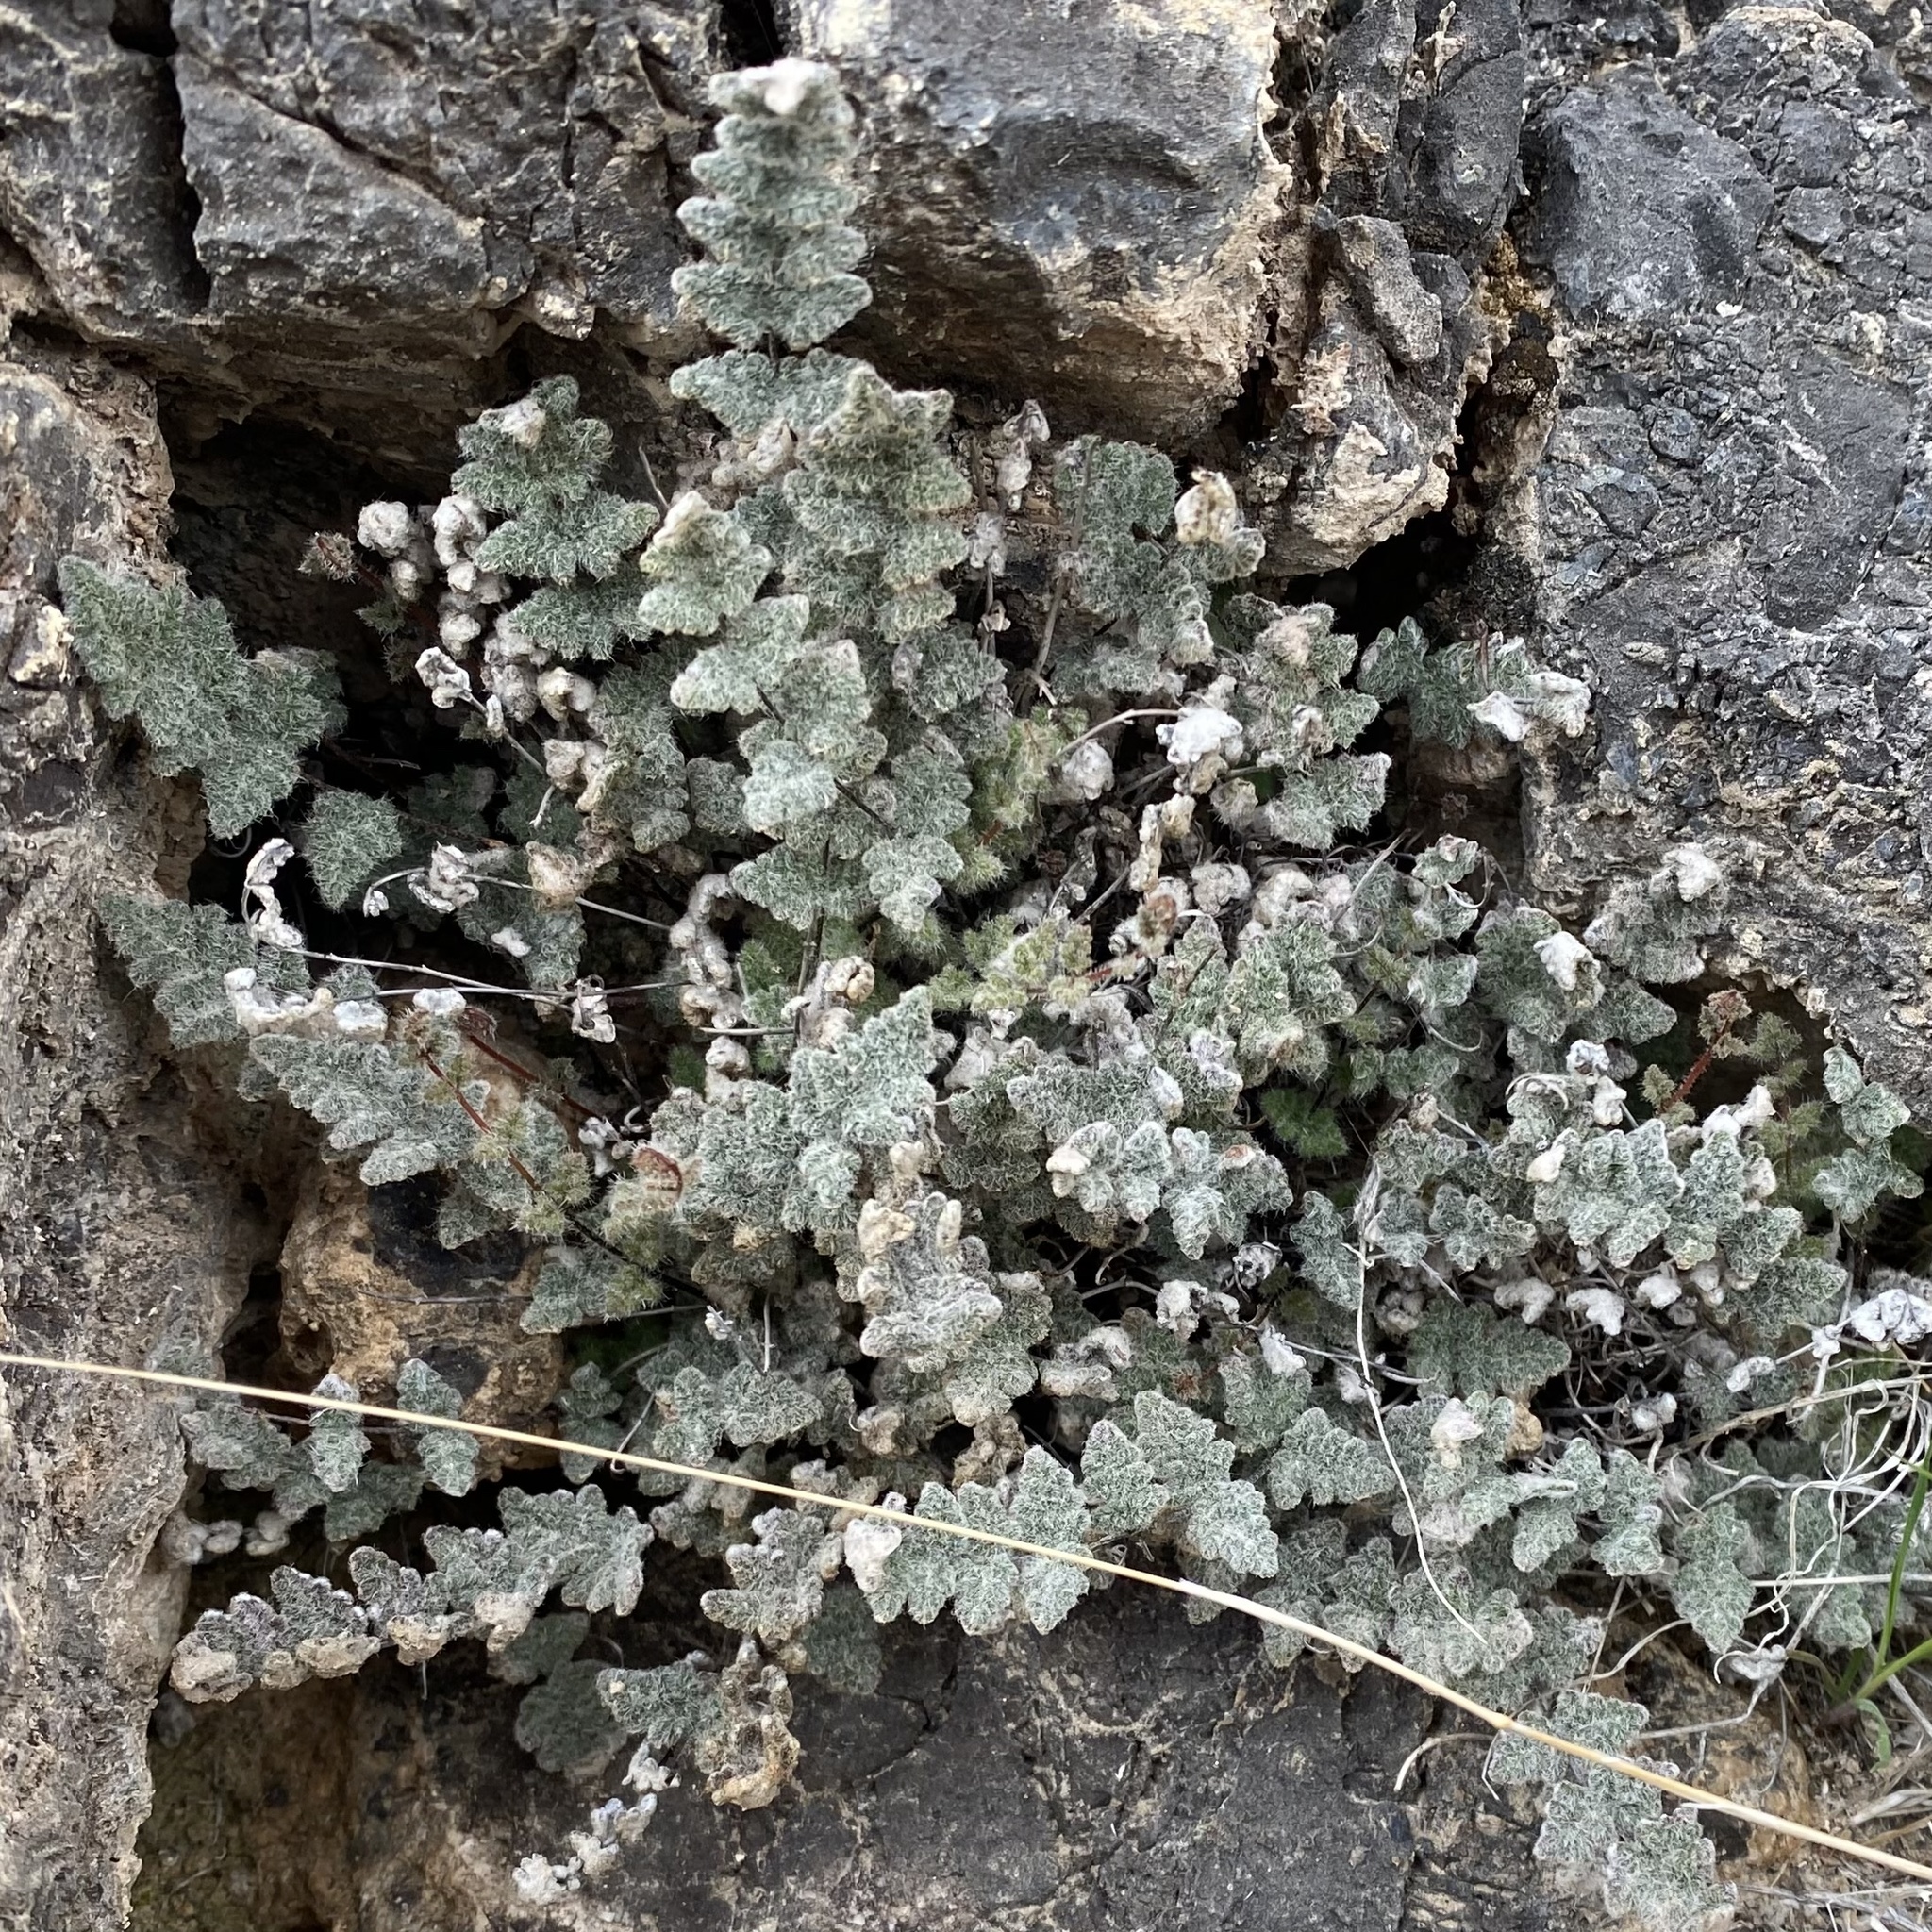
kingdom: Plantae
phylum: Tracheophyta
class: Polypodiopsida
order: Polypodiales
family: Pteridaceae
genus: Myriopteris
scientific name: Myriopteris parryi
